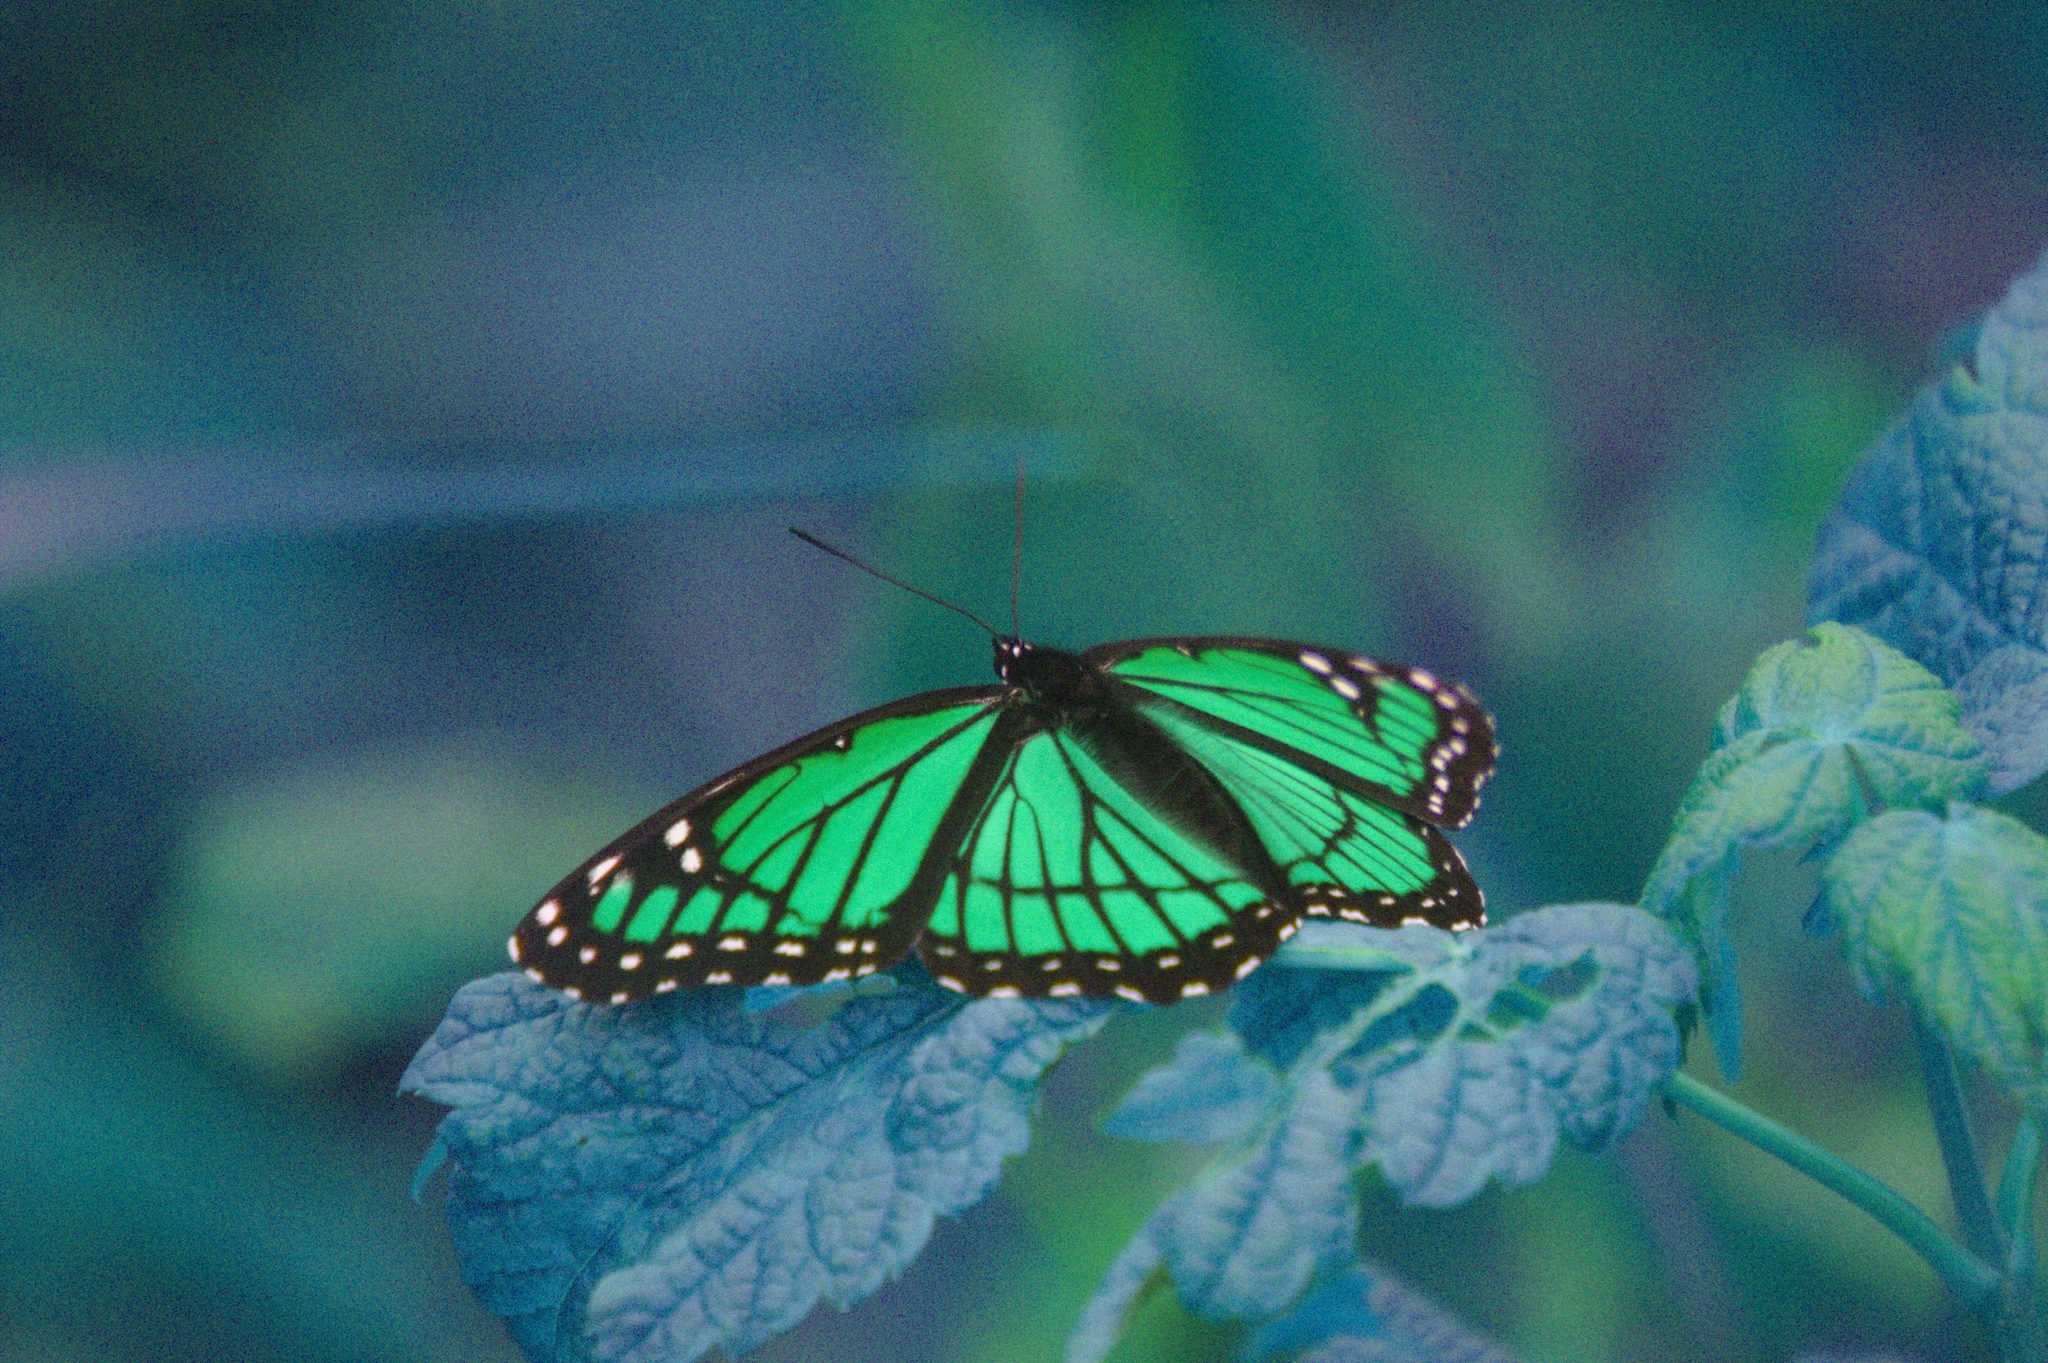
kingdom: Animalia
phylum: Arthropoda
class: Insecta
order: Lepidoptera
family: Nymphalidae
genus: Limenitis
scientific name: Limenitis archippus
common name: Viceroy
